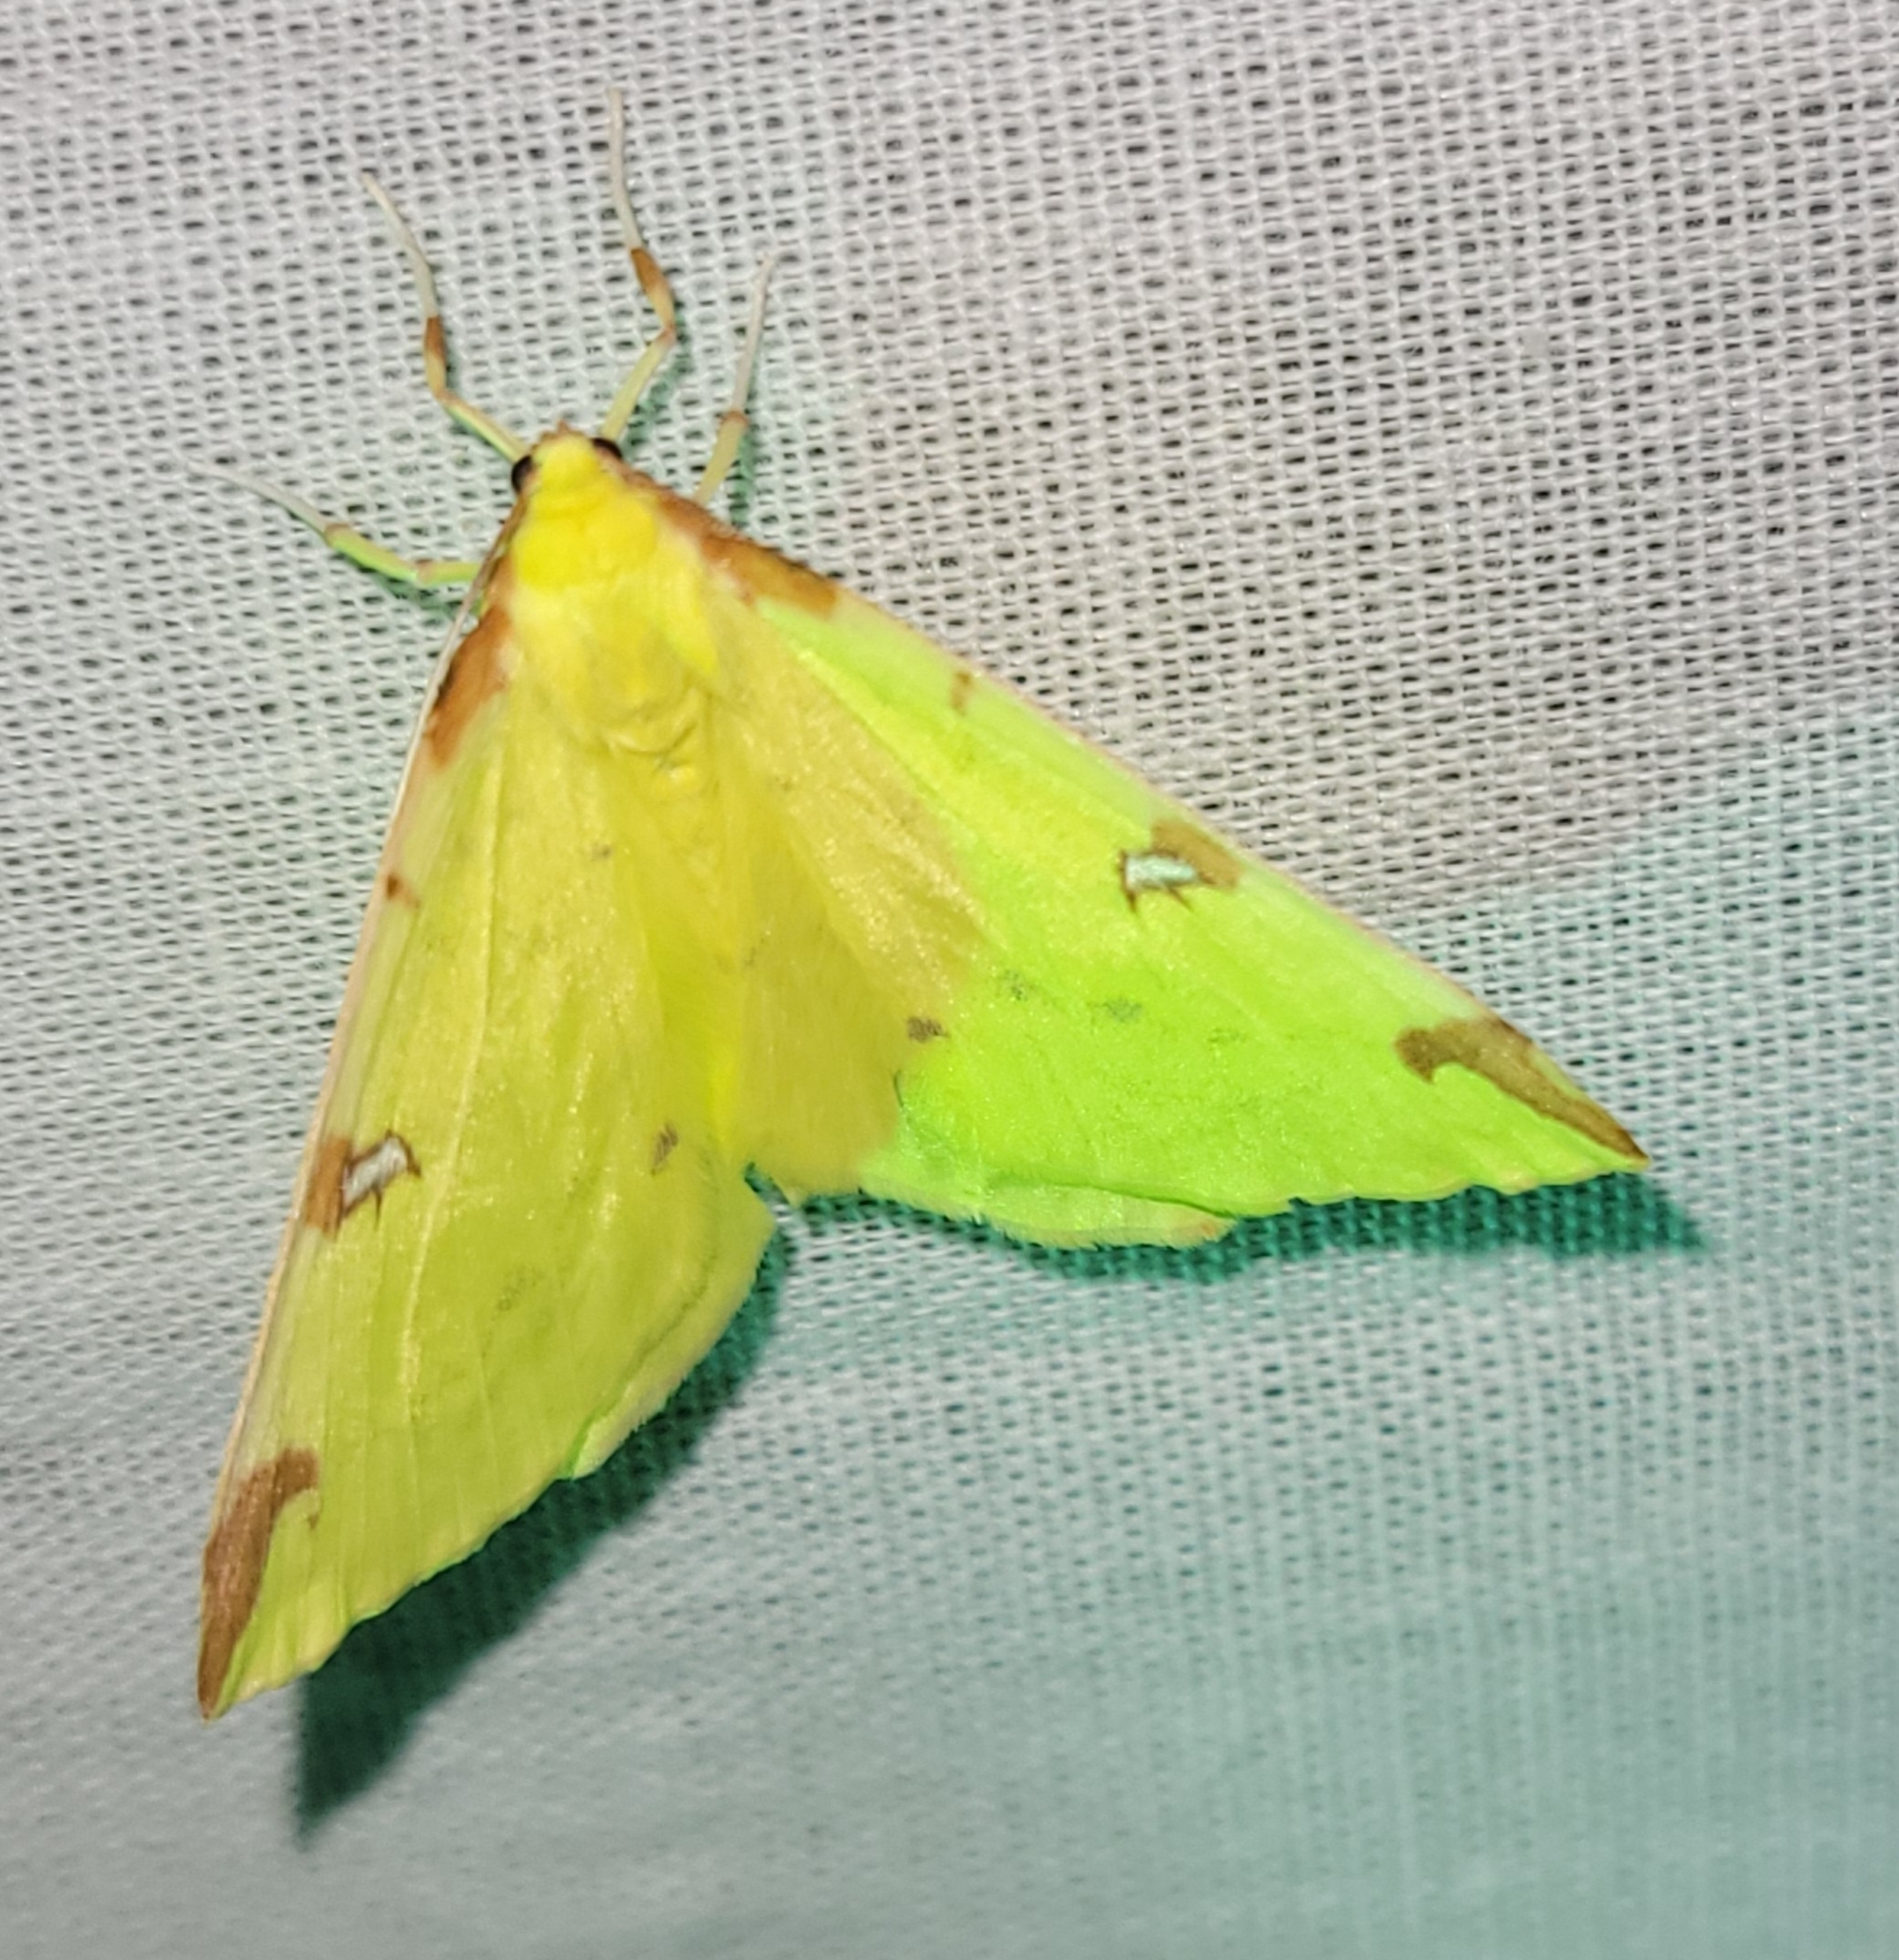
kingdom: Animalia
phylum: Arthropoda
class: Insecta
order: Lepidoptera
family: Geometridae
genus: Opisthograptis
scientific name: Opisthograptis luteolata
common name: Brimstone moth
